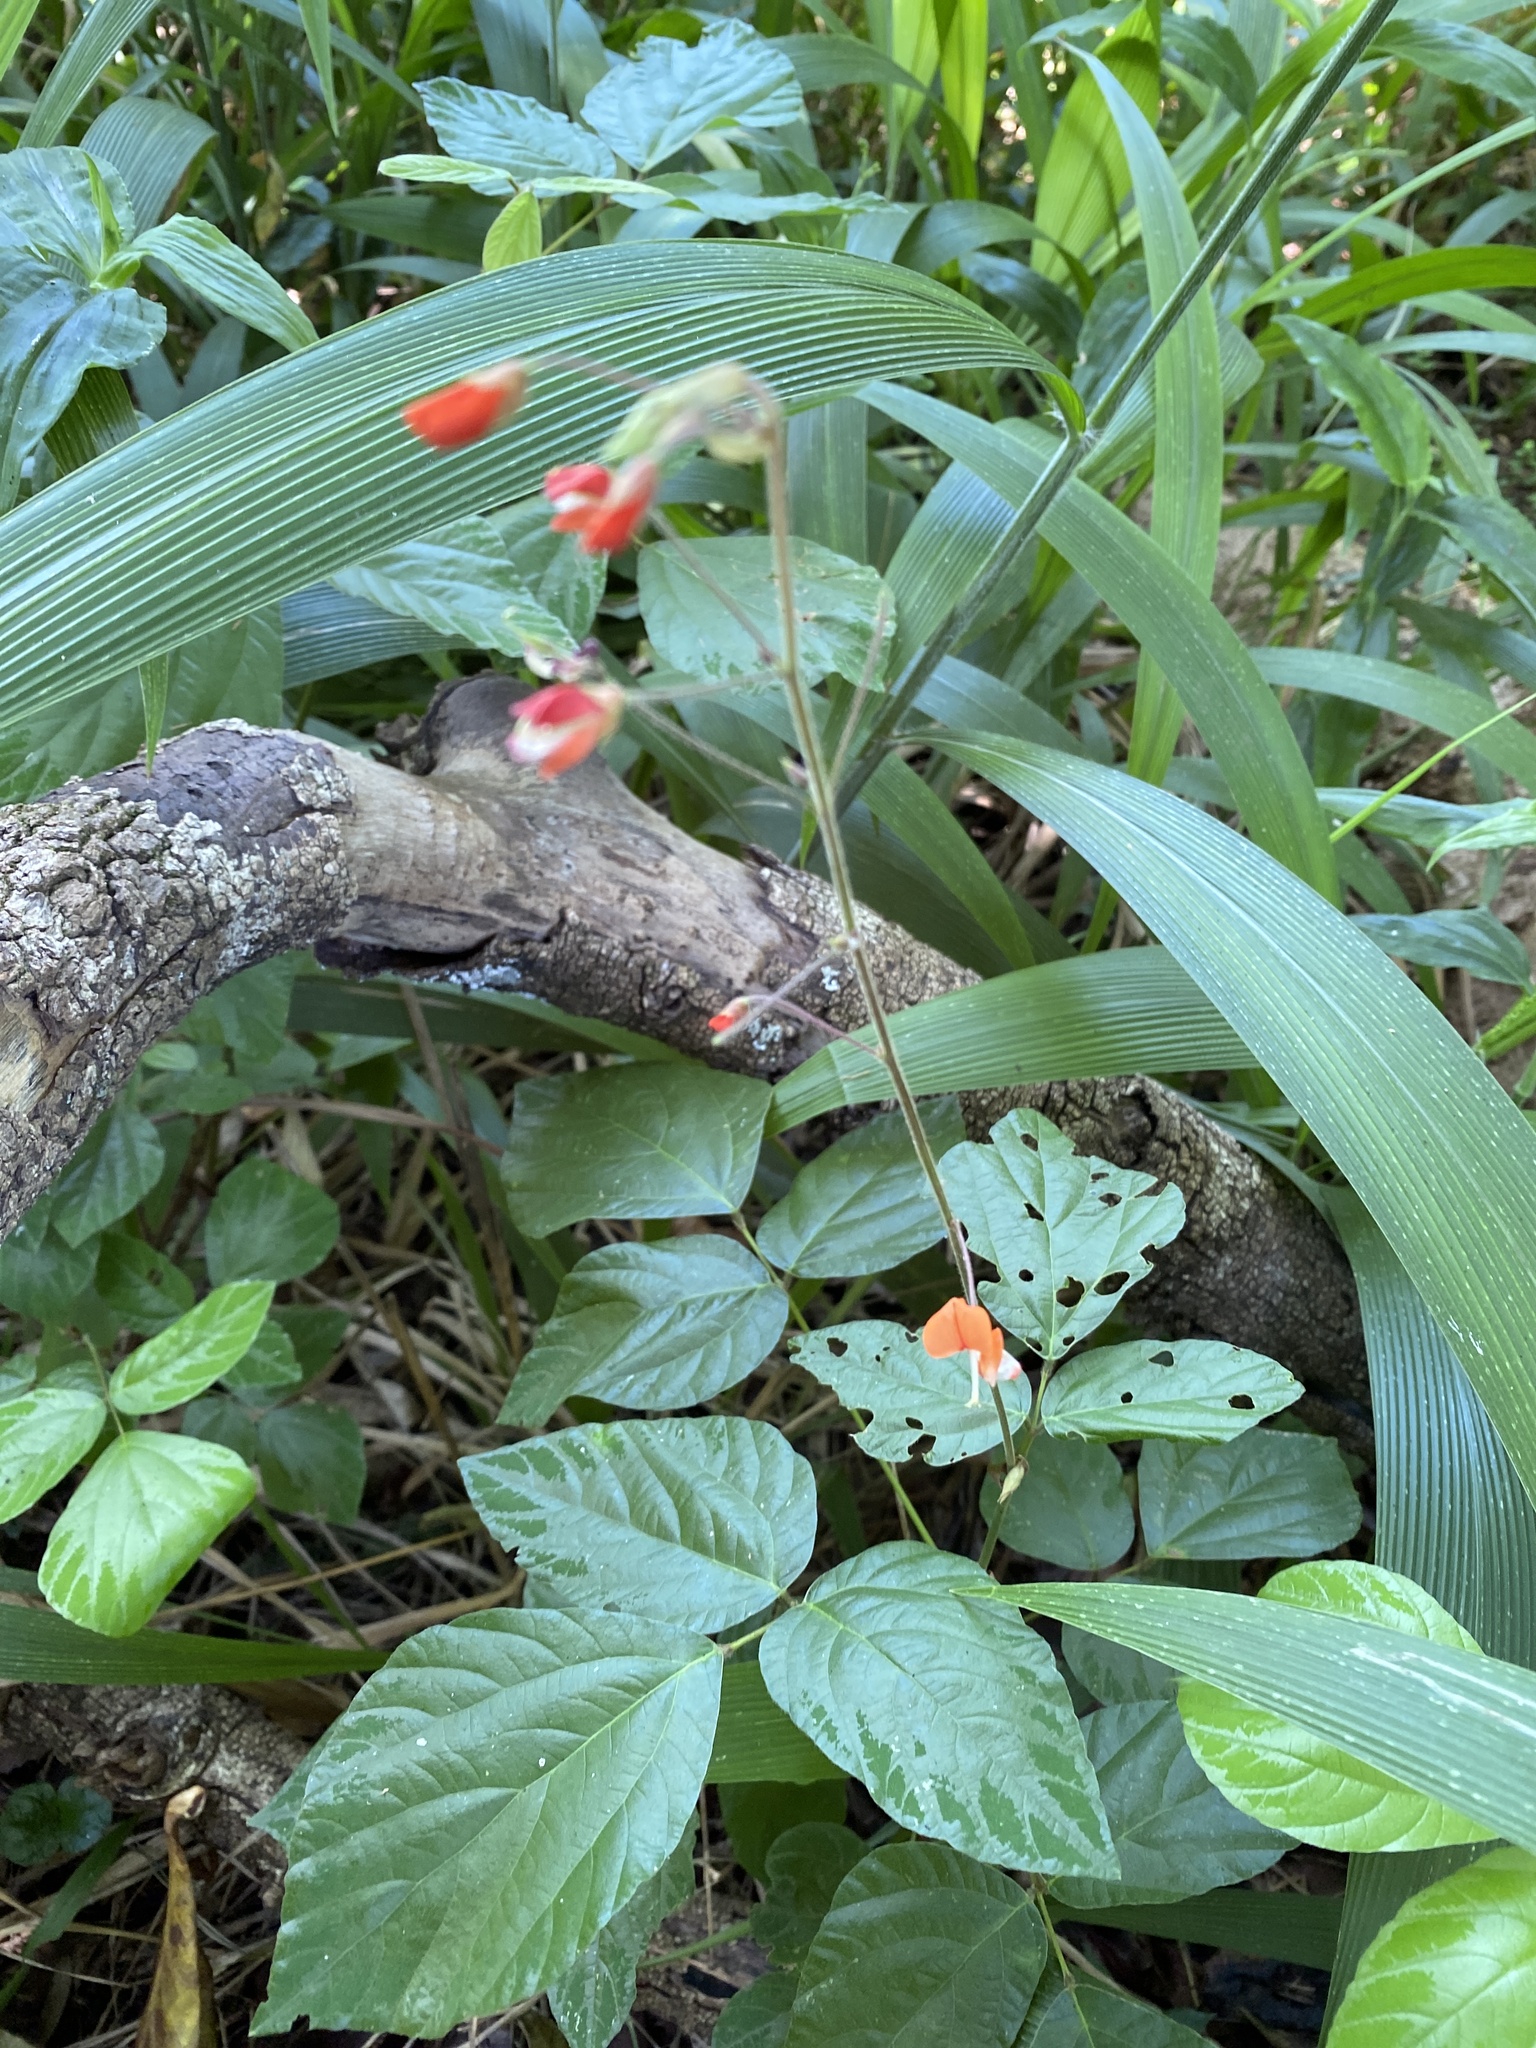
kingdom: Plantae
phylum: Tracheophyta
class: Magnoliopsida
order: Fabales
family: Fabaceae
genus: Hylodesmum
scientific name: Hylodesmum repandum
